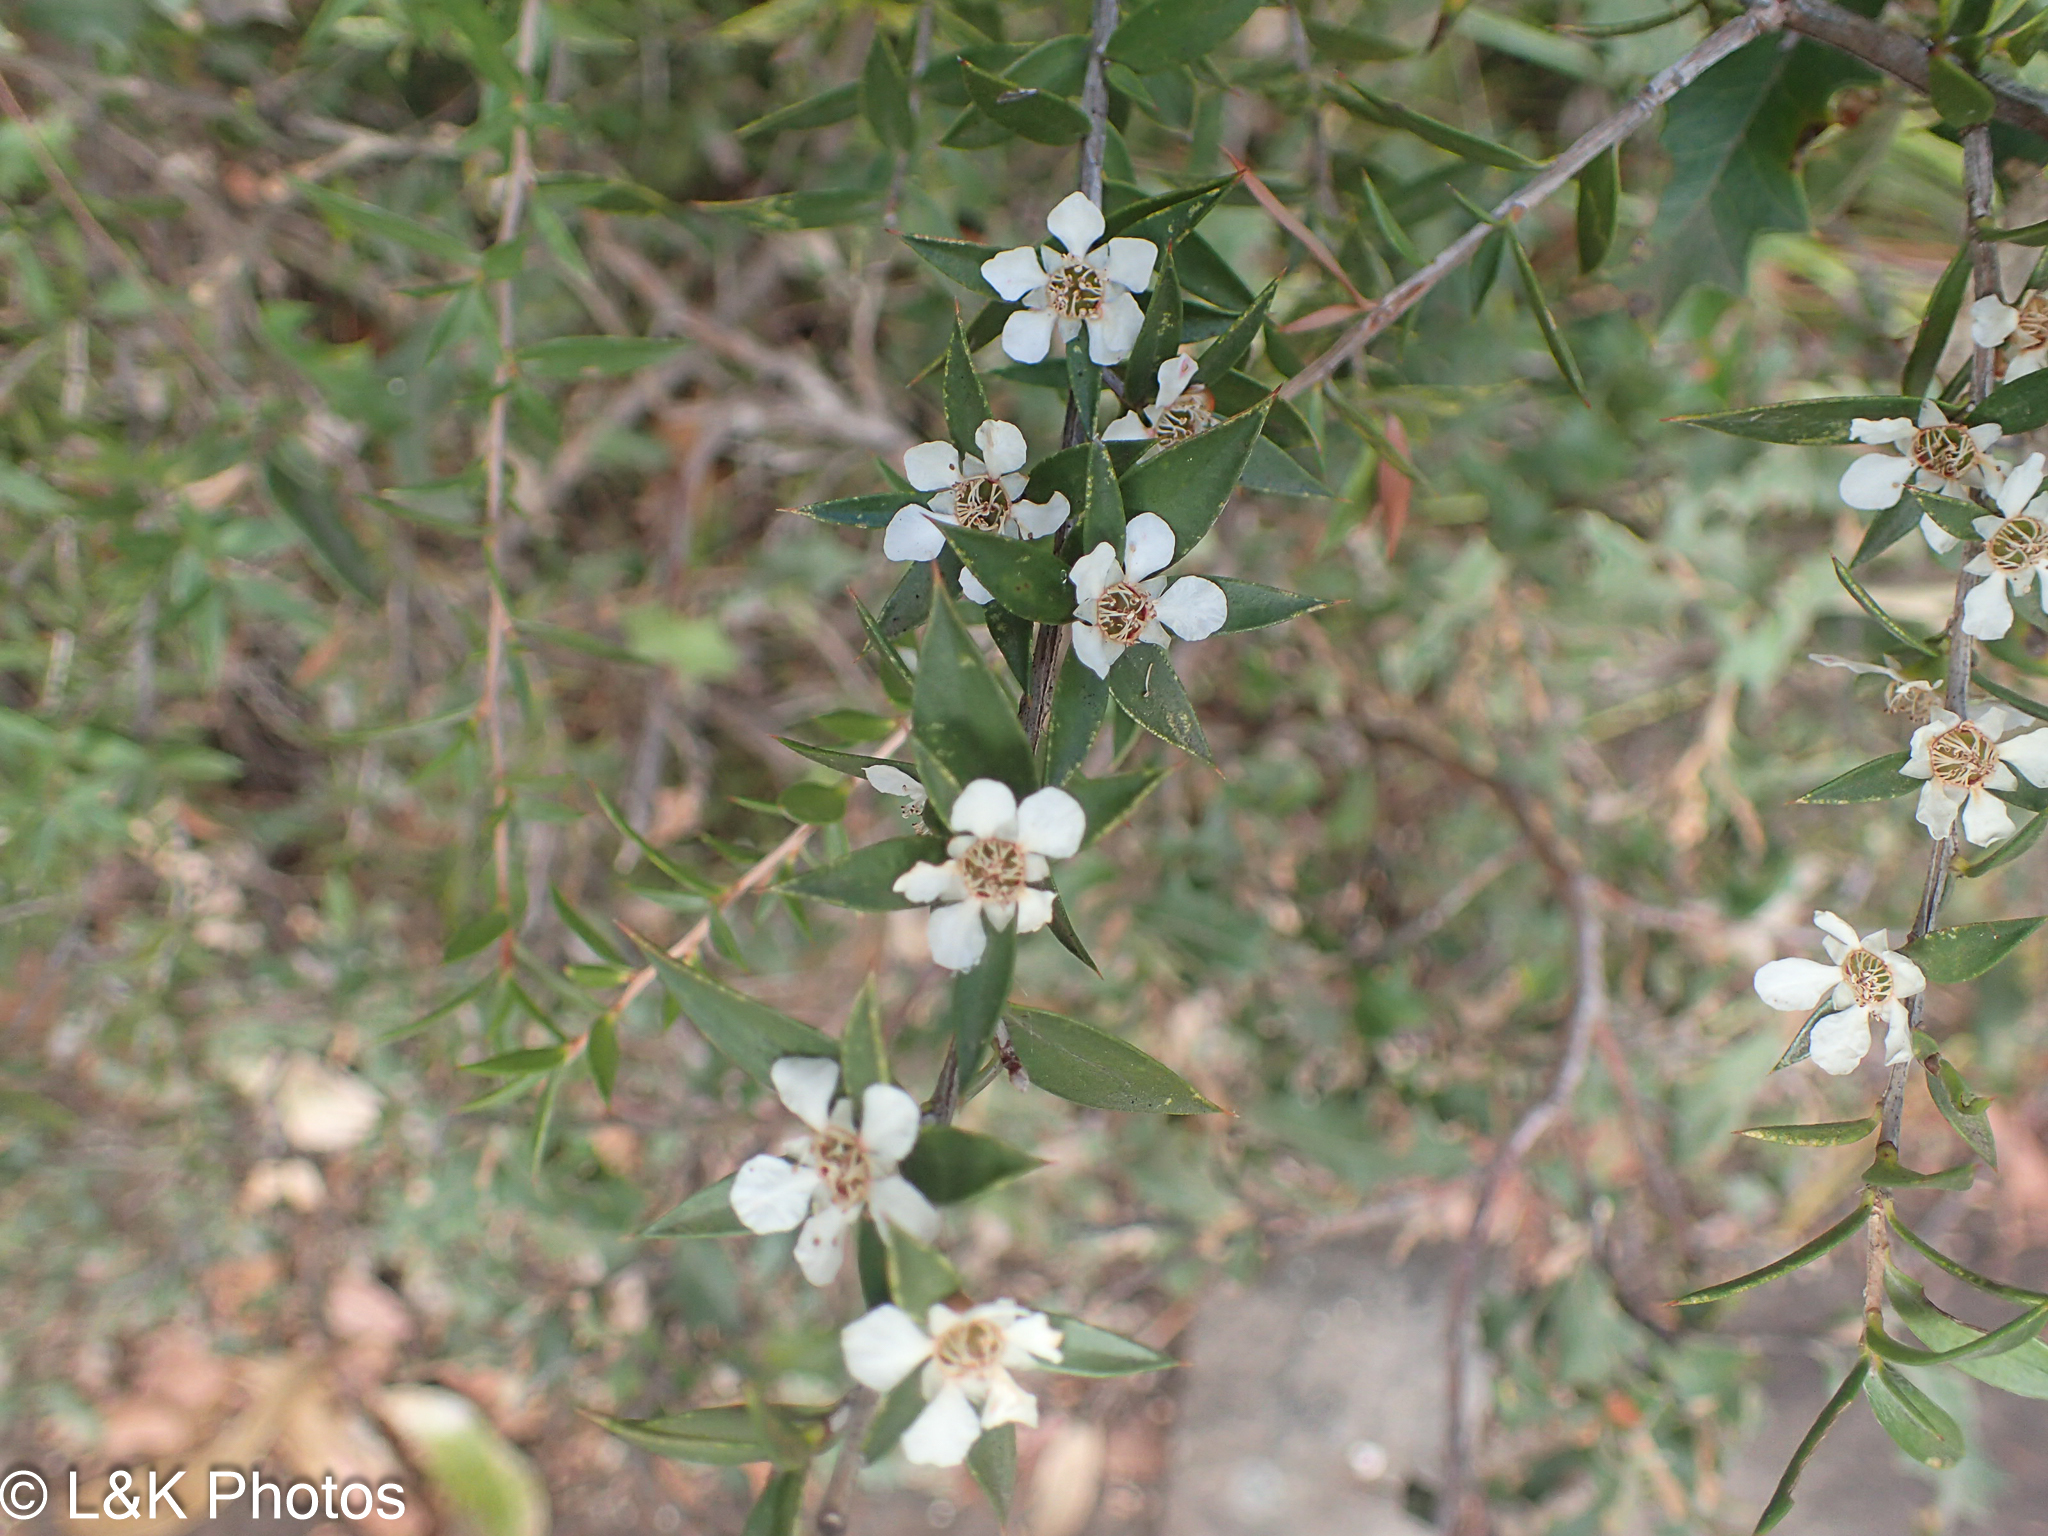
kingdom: Plantae
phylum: Tracheophyta
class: Magnoliopsida
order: Myrtales
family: Myrtaceae
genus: Leptospermum
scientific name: Leptospermum scoparium
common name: Broom tea-tree
